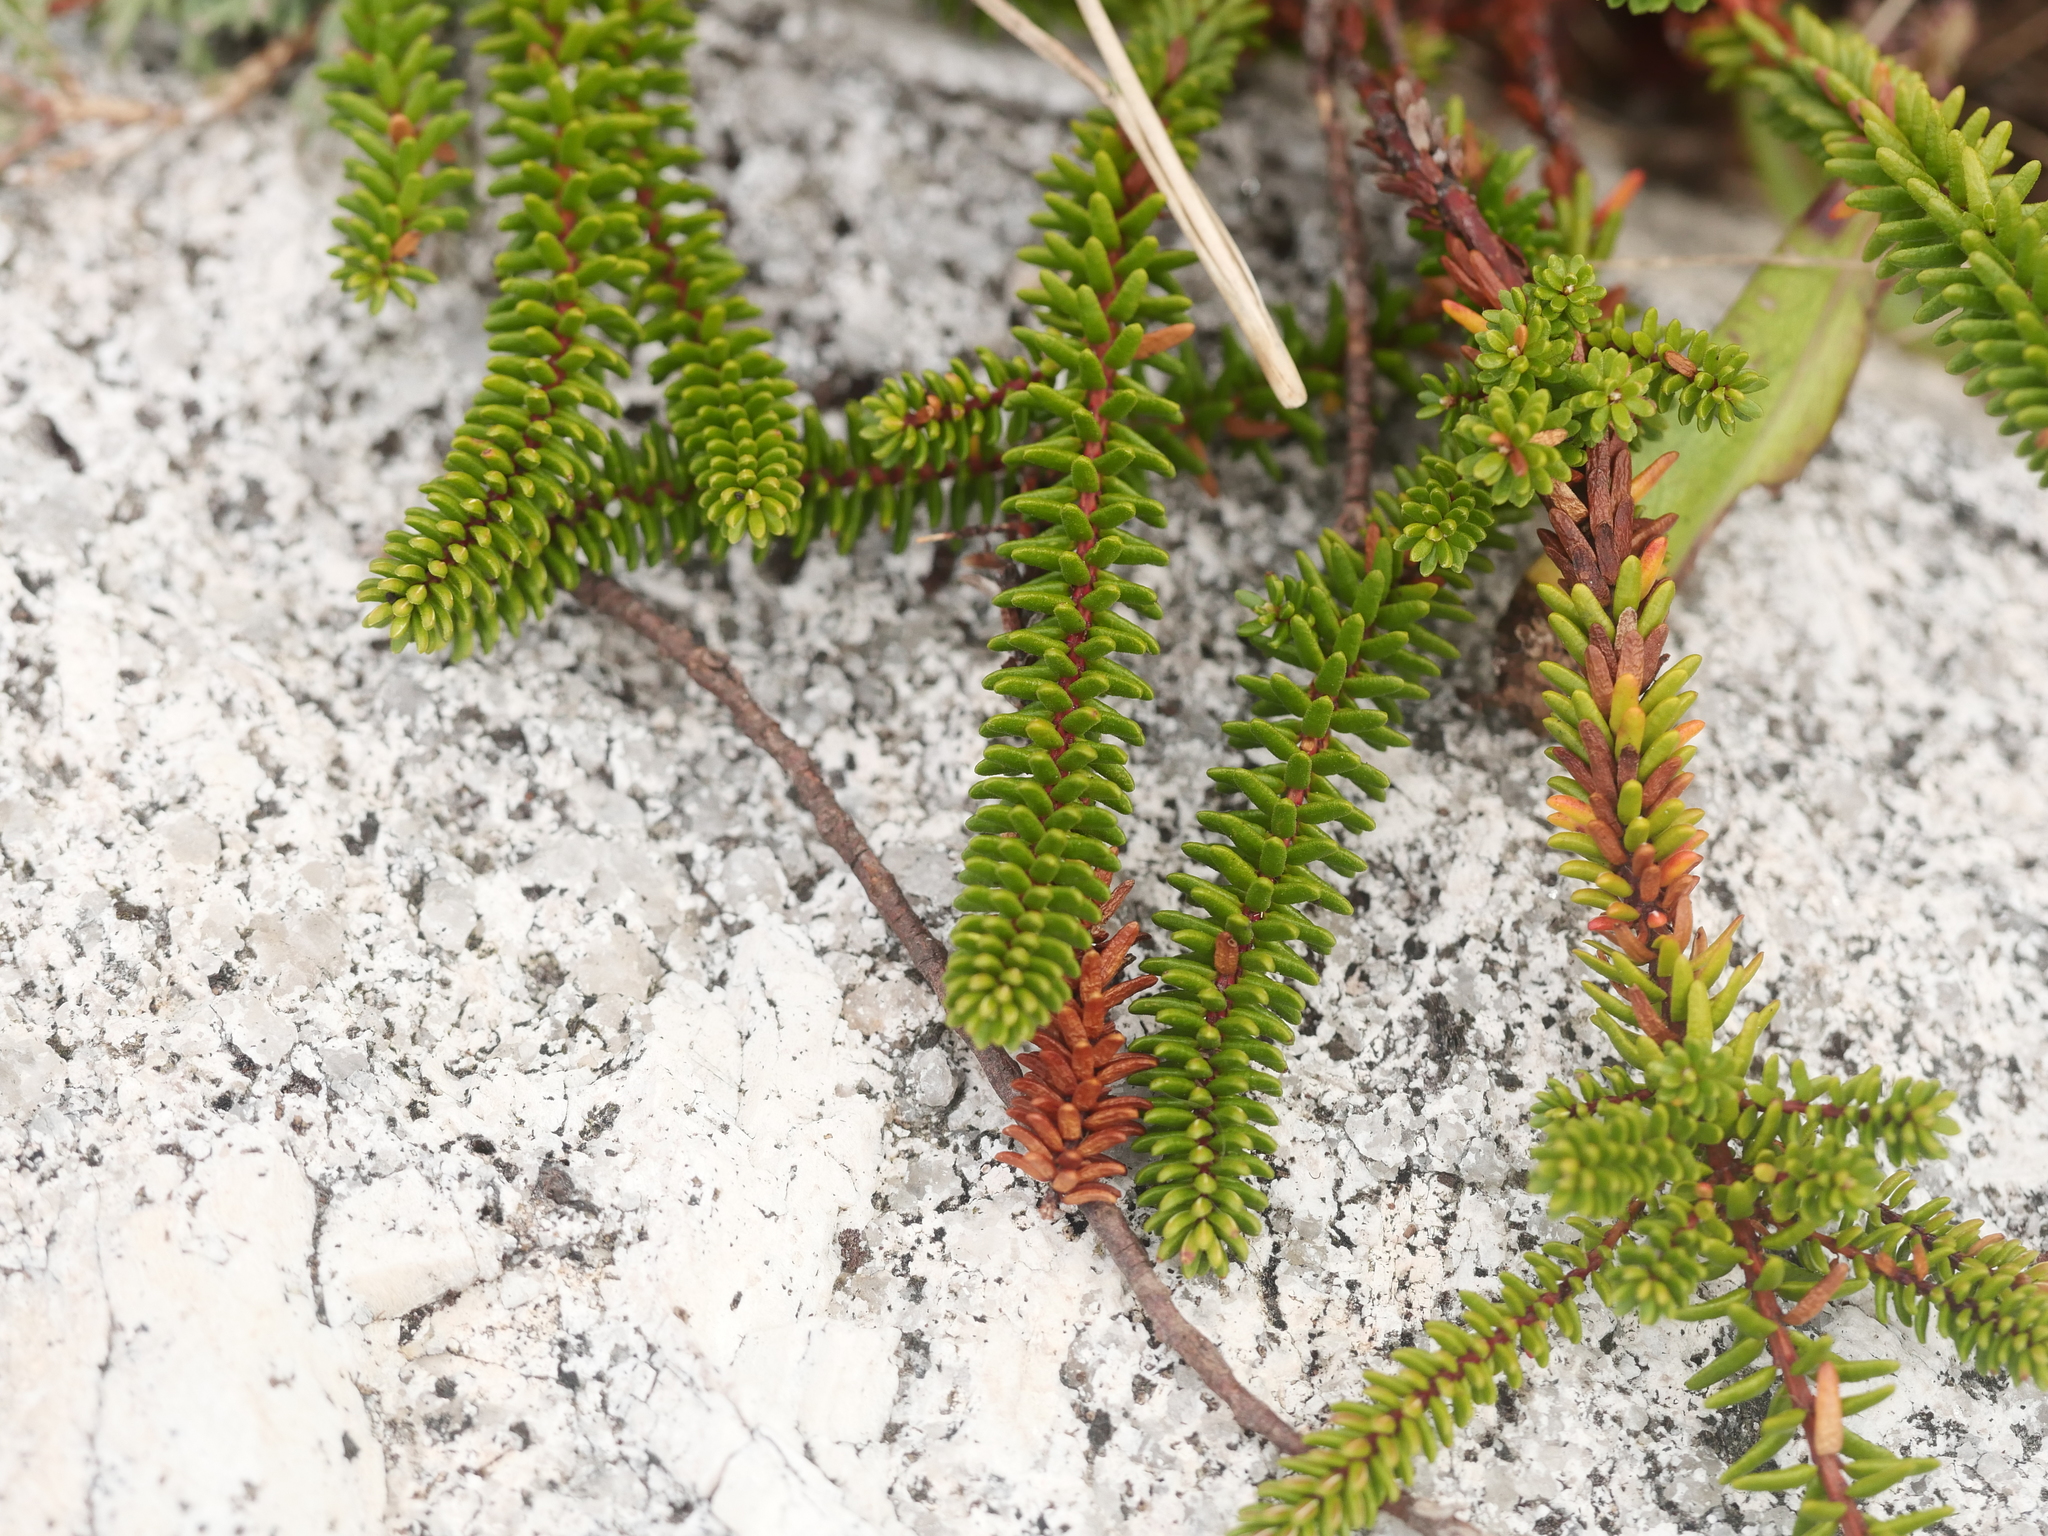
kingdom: Plantae
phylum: Tracheophyta
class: Magnoliopsida
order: Ericales
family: Ericaceae
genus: Empetrum
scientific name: Empetrum nigrum
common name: Black crowberry
